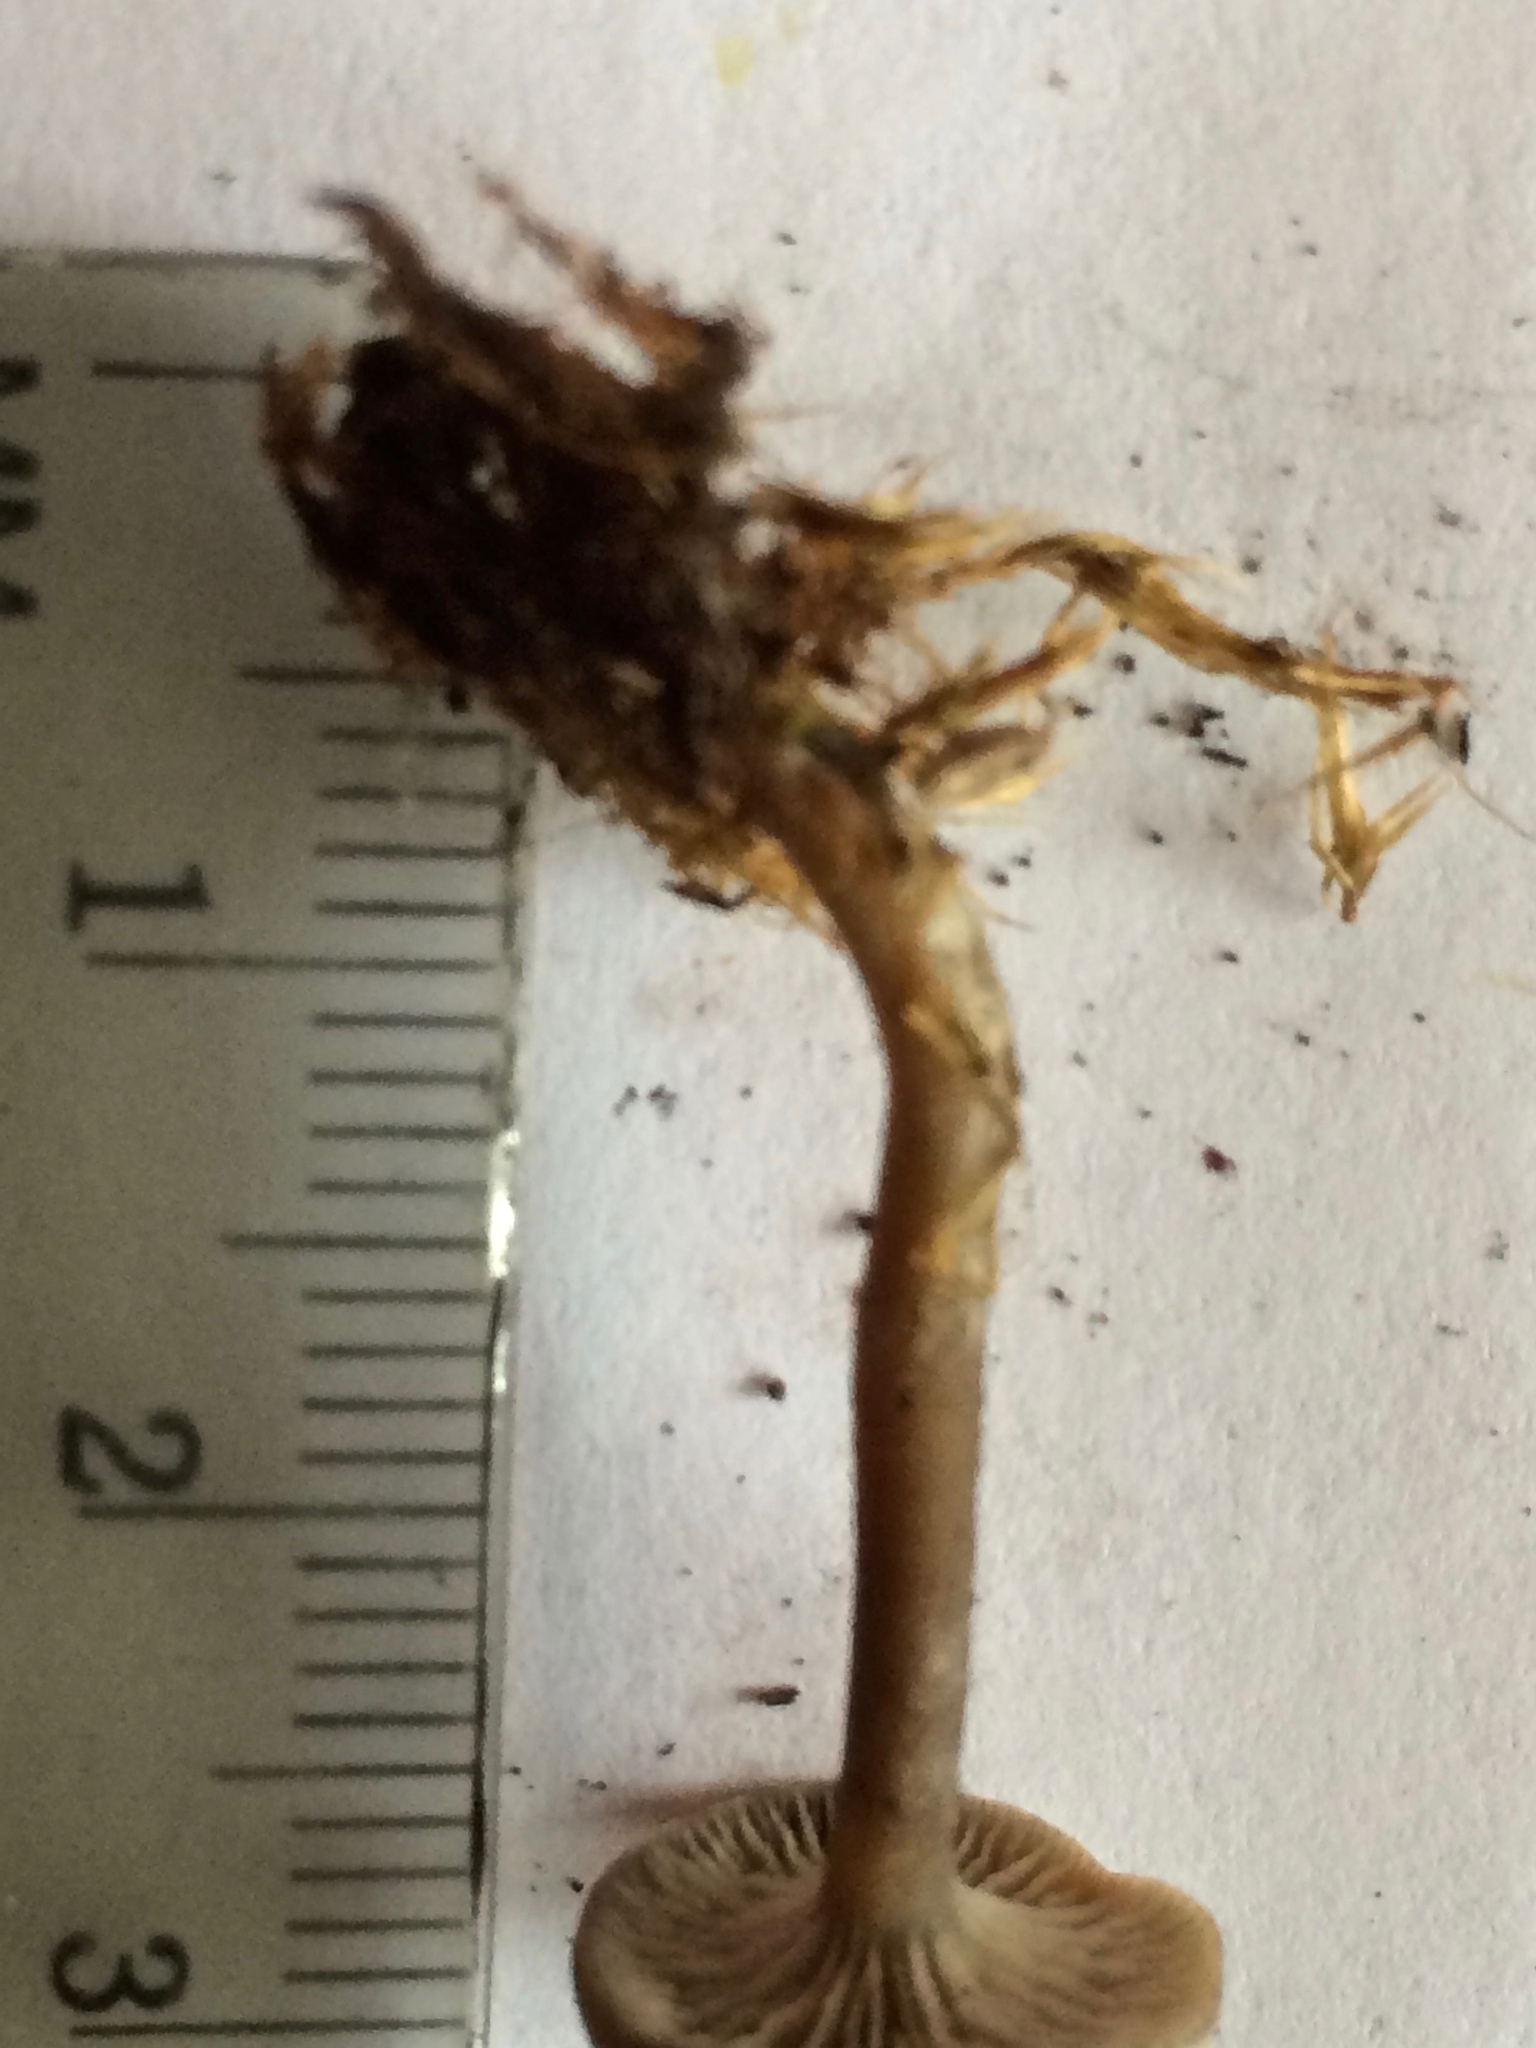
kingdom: Fungi
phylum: Basidiomycota
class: Agaricomycetes
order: Agaricales
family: Entolomataceae
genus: Clitopilus
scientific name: Clitopilus caelatus
